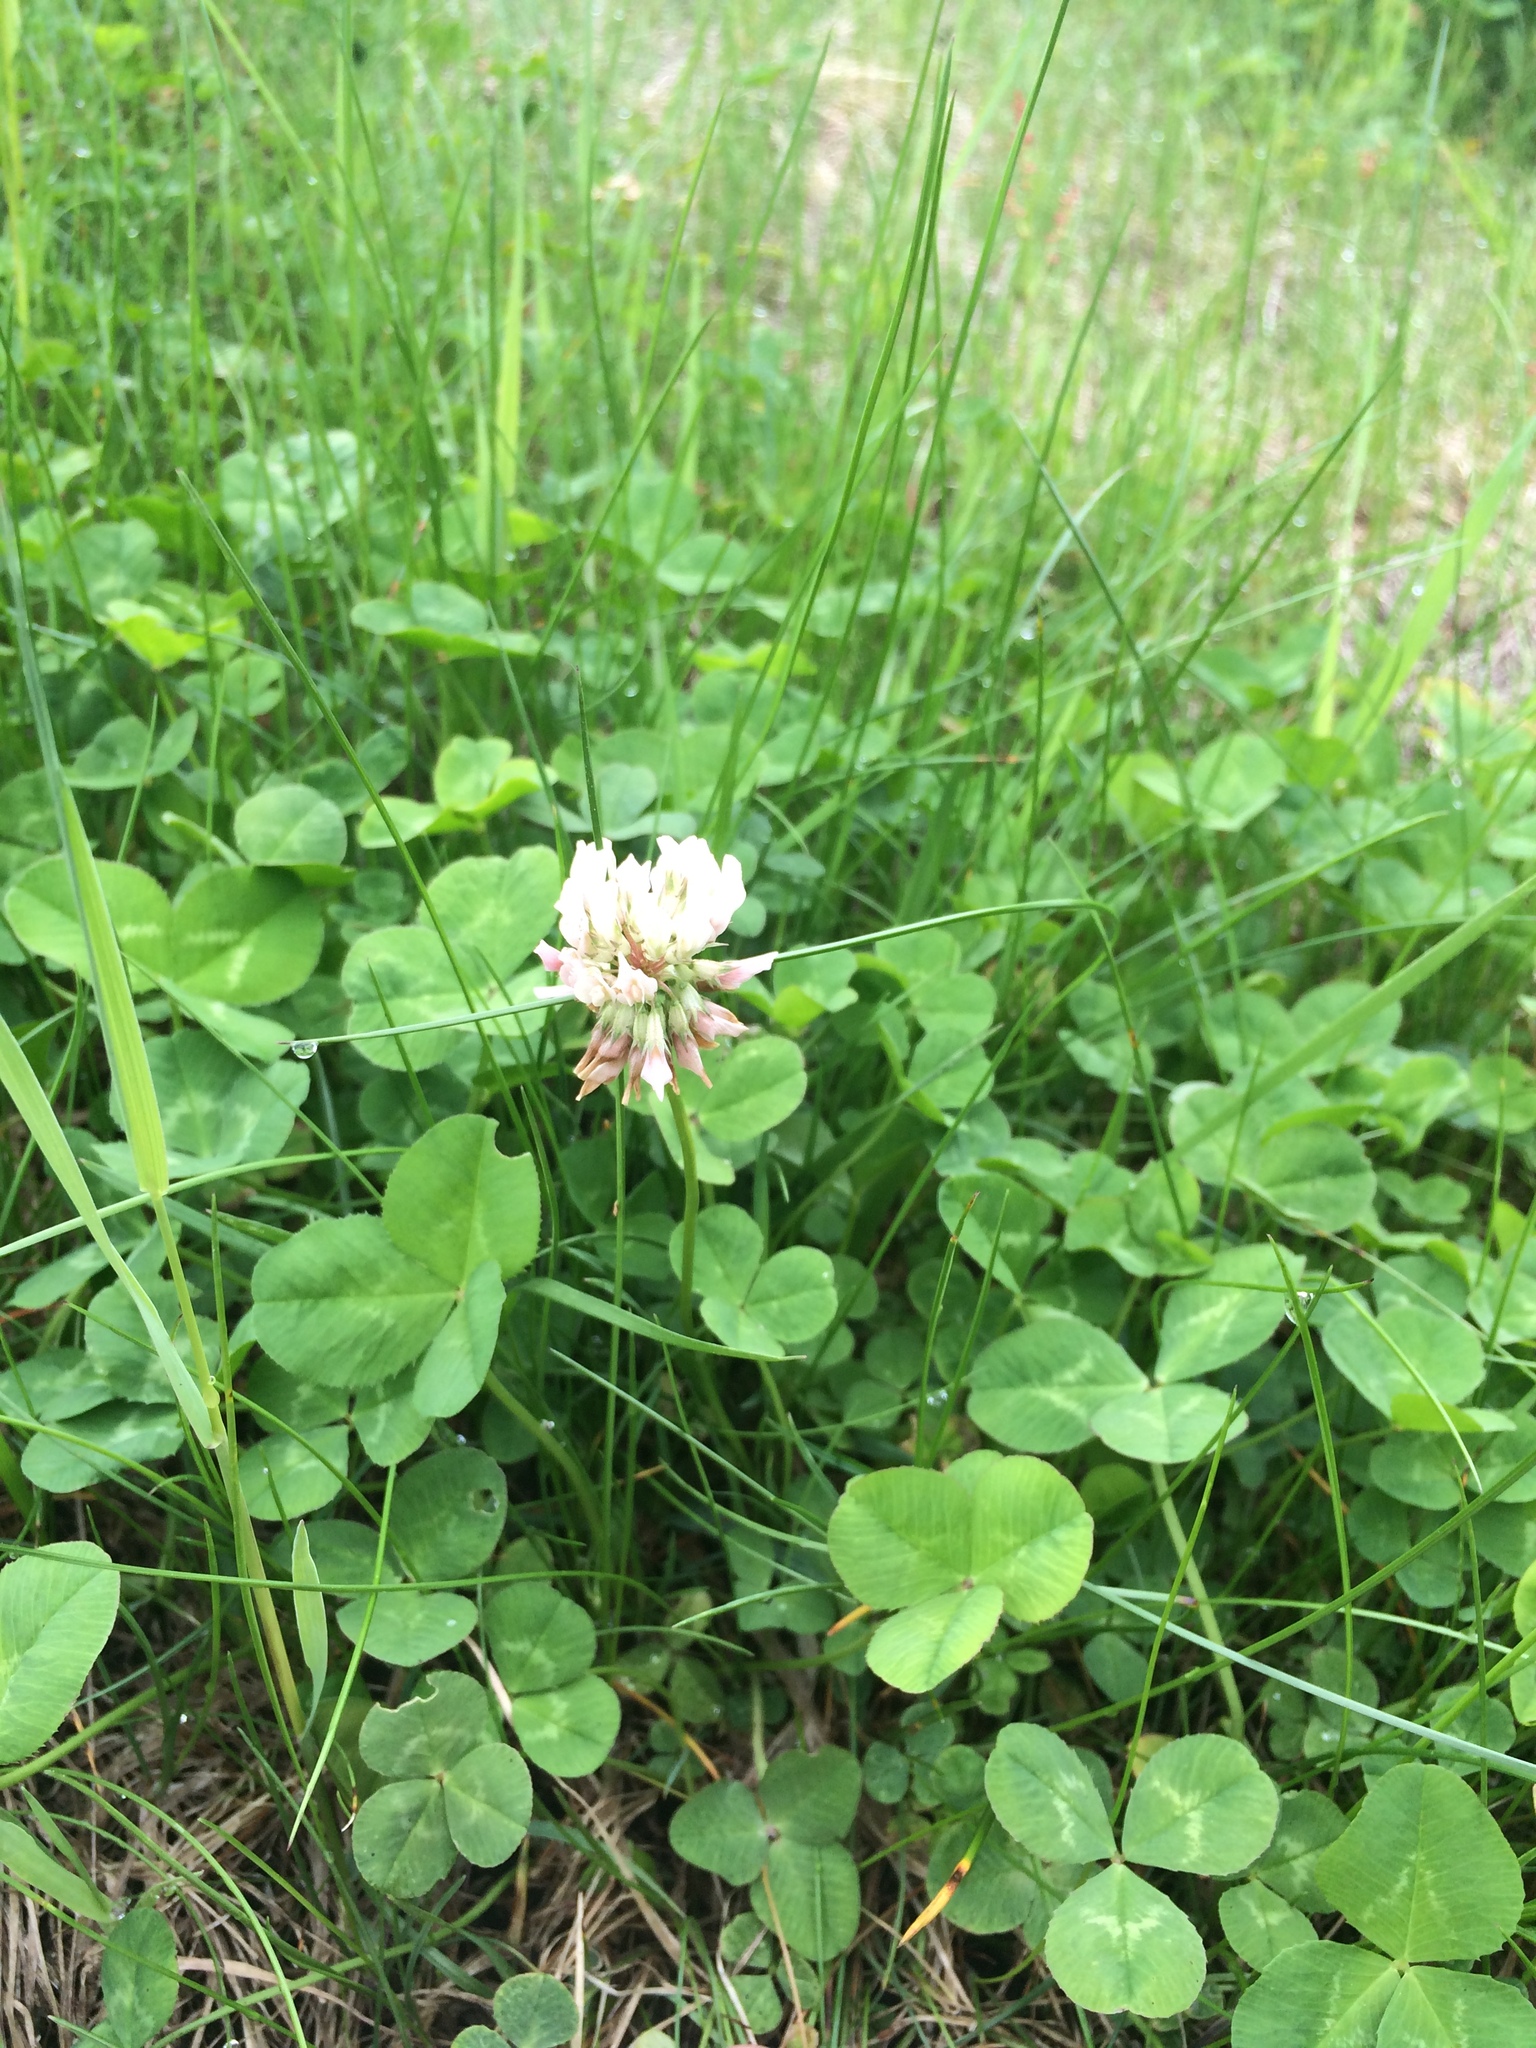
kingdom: Plantae
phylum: Tracheophyta
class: Magnoliopsida
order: Fabales
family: Fabaceae
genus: Trifolium
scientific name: Trifolium repens
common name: White clover
